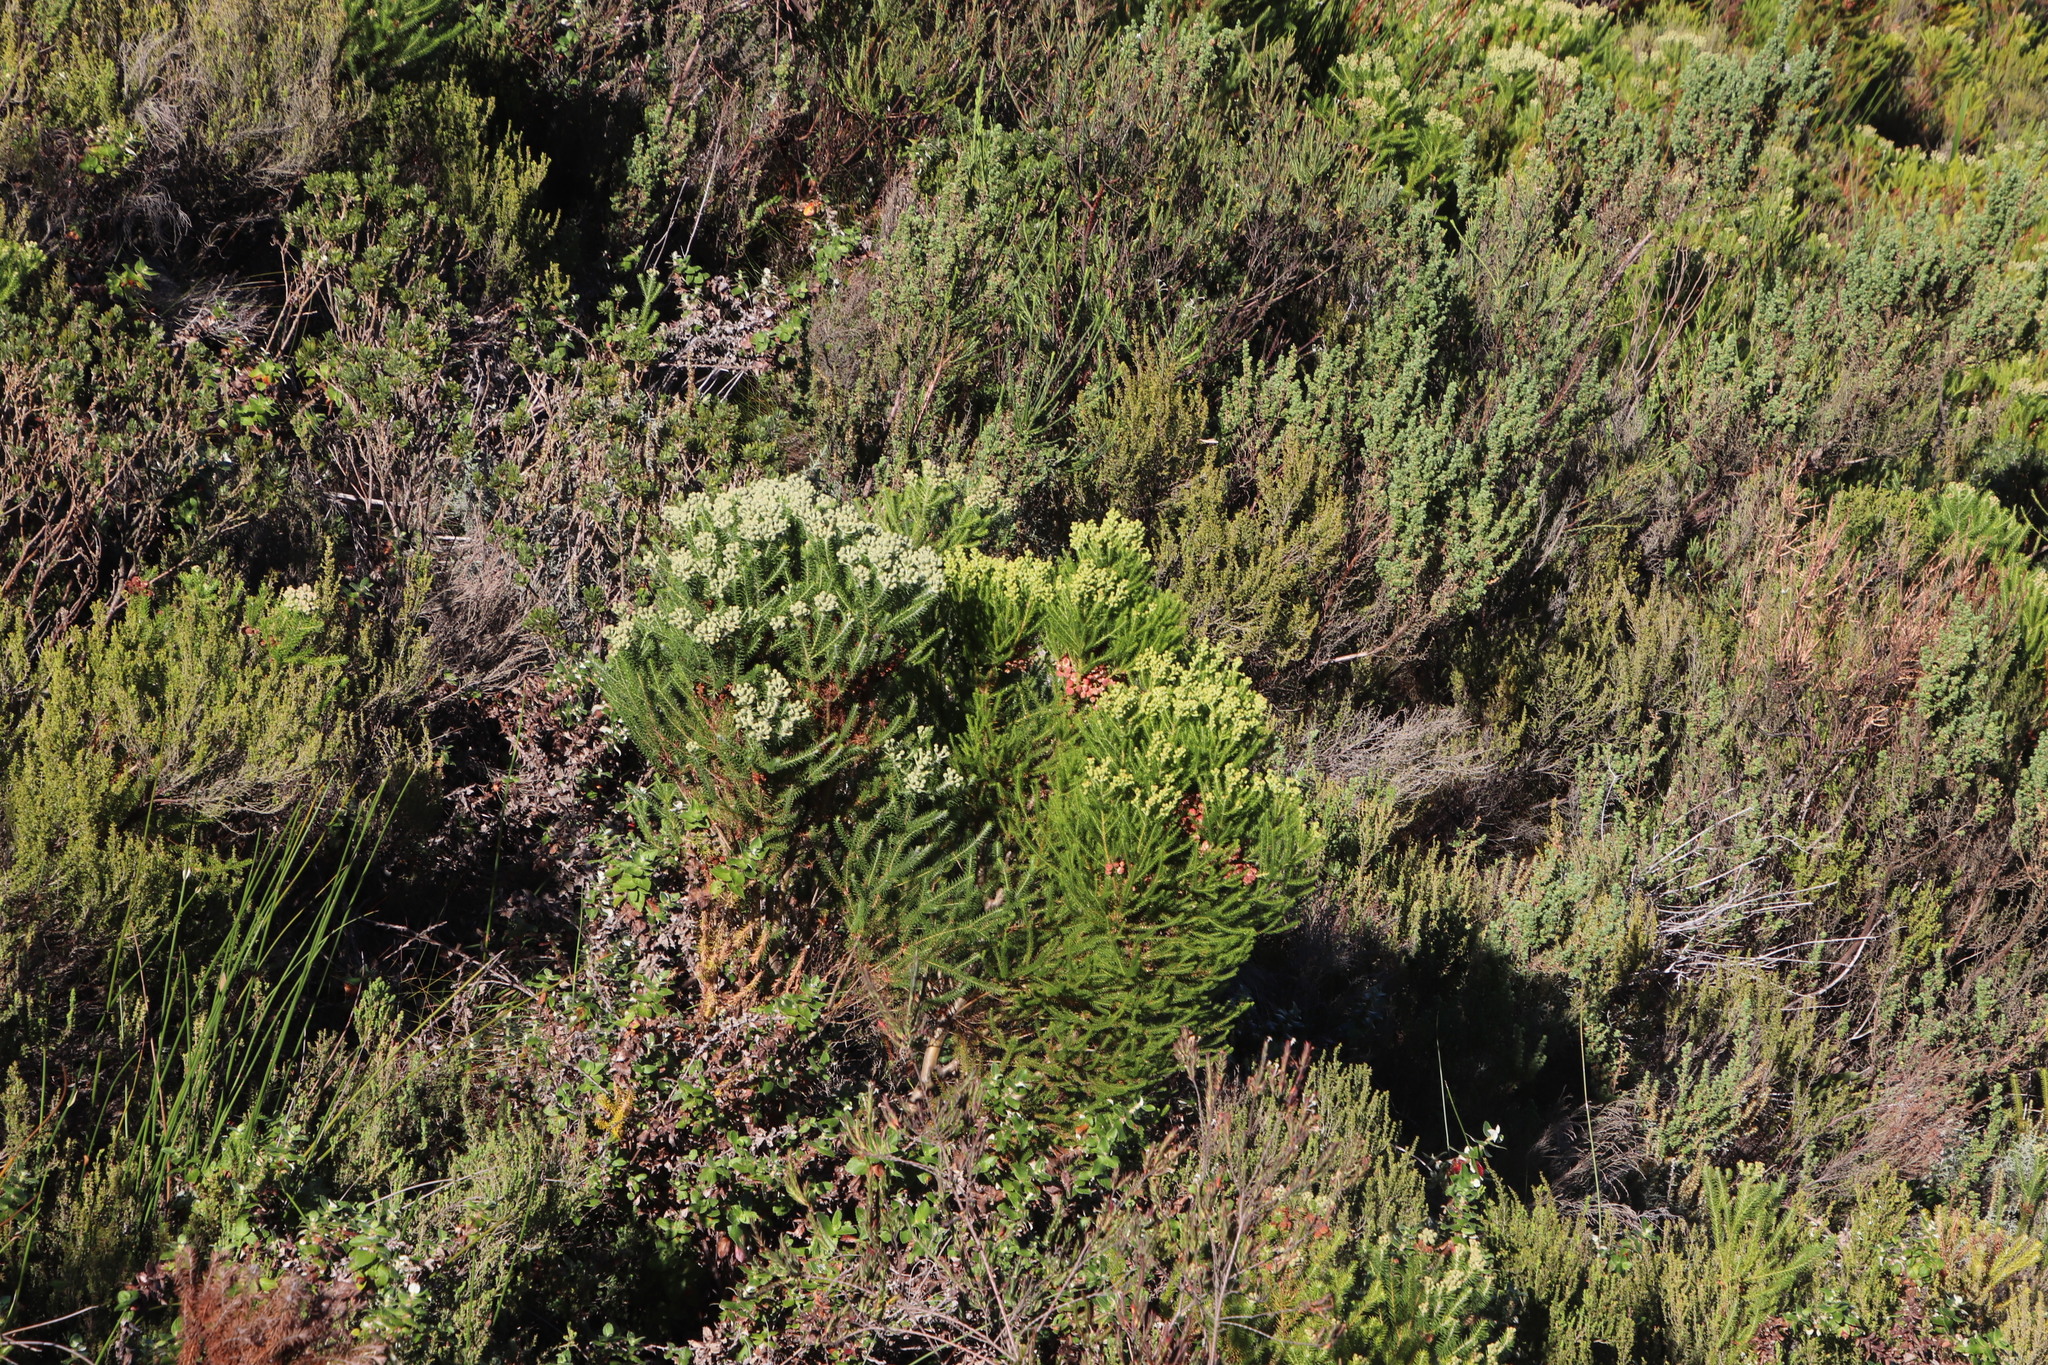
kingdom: Plantae
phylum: Tracheophyta
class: Magnoliopsida
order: Bruniales
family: Bruniaceae
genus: Berzelia
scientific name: Berzelia intermedia
